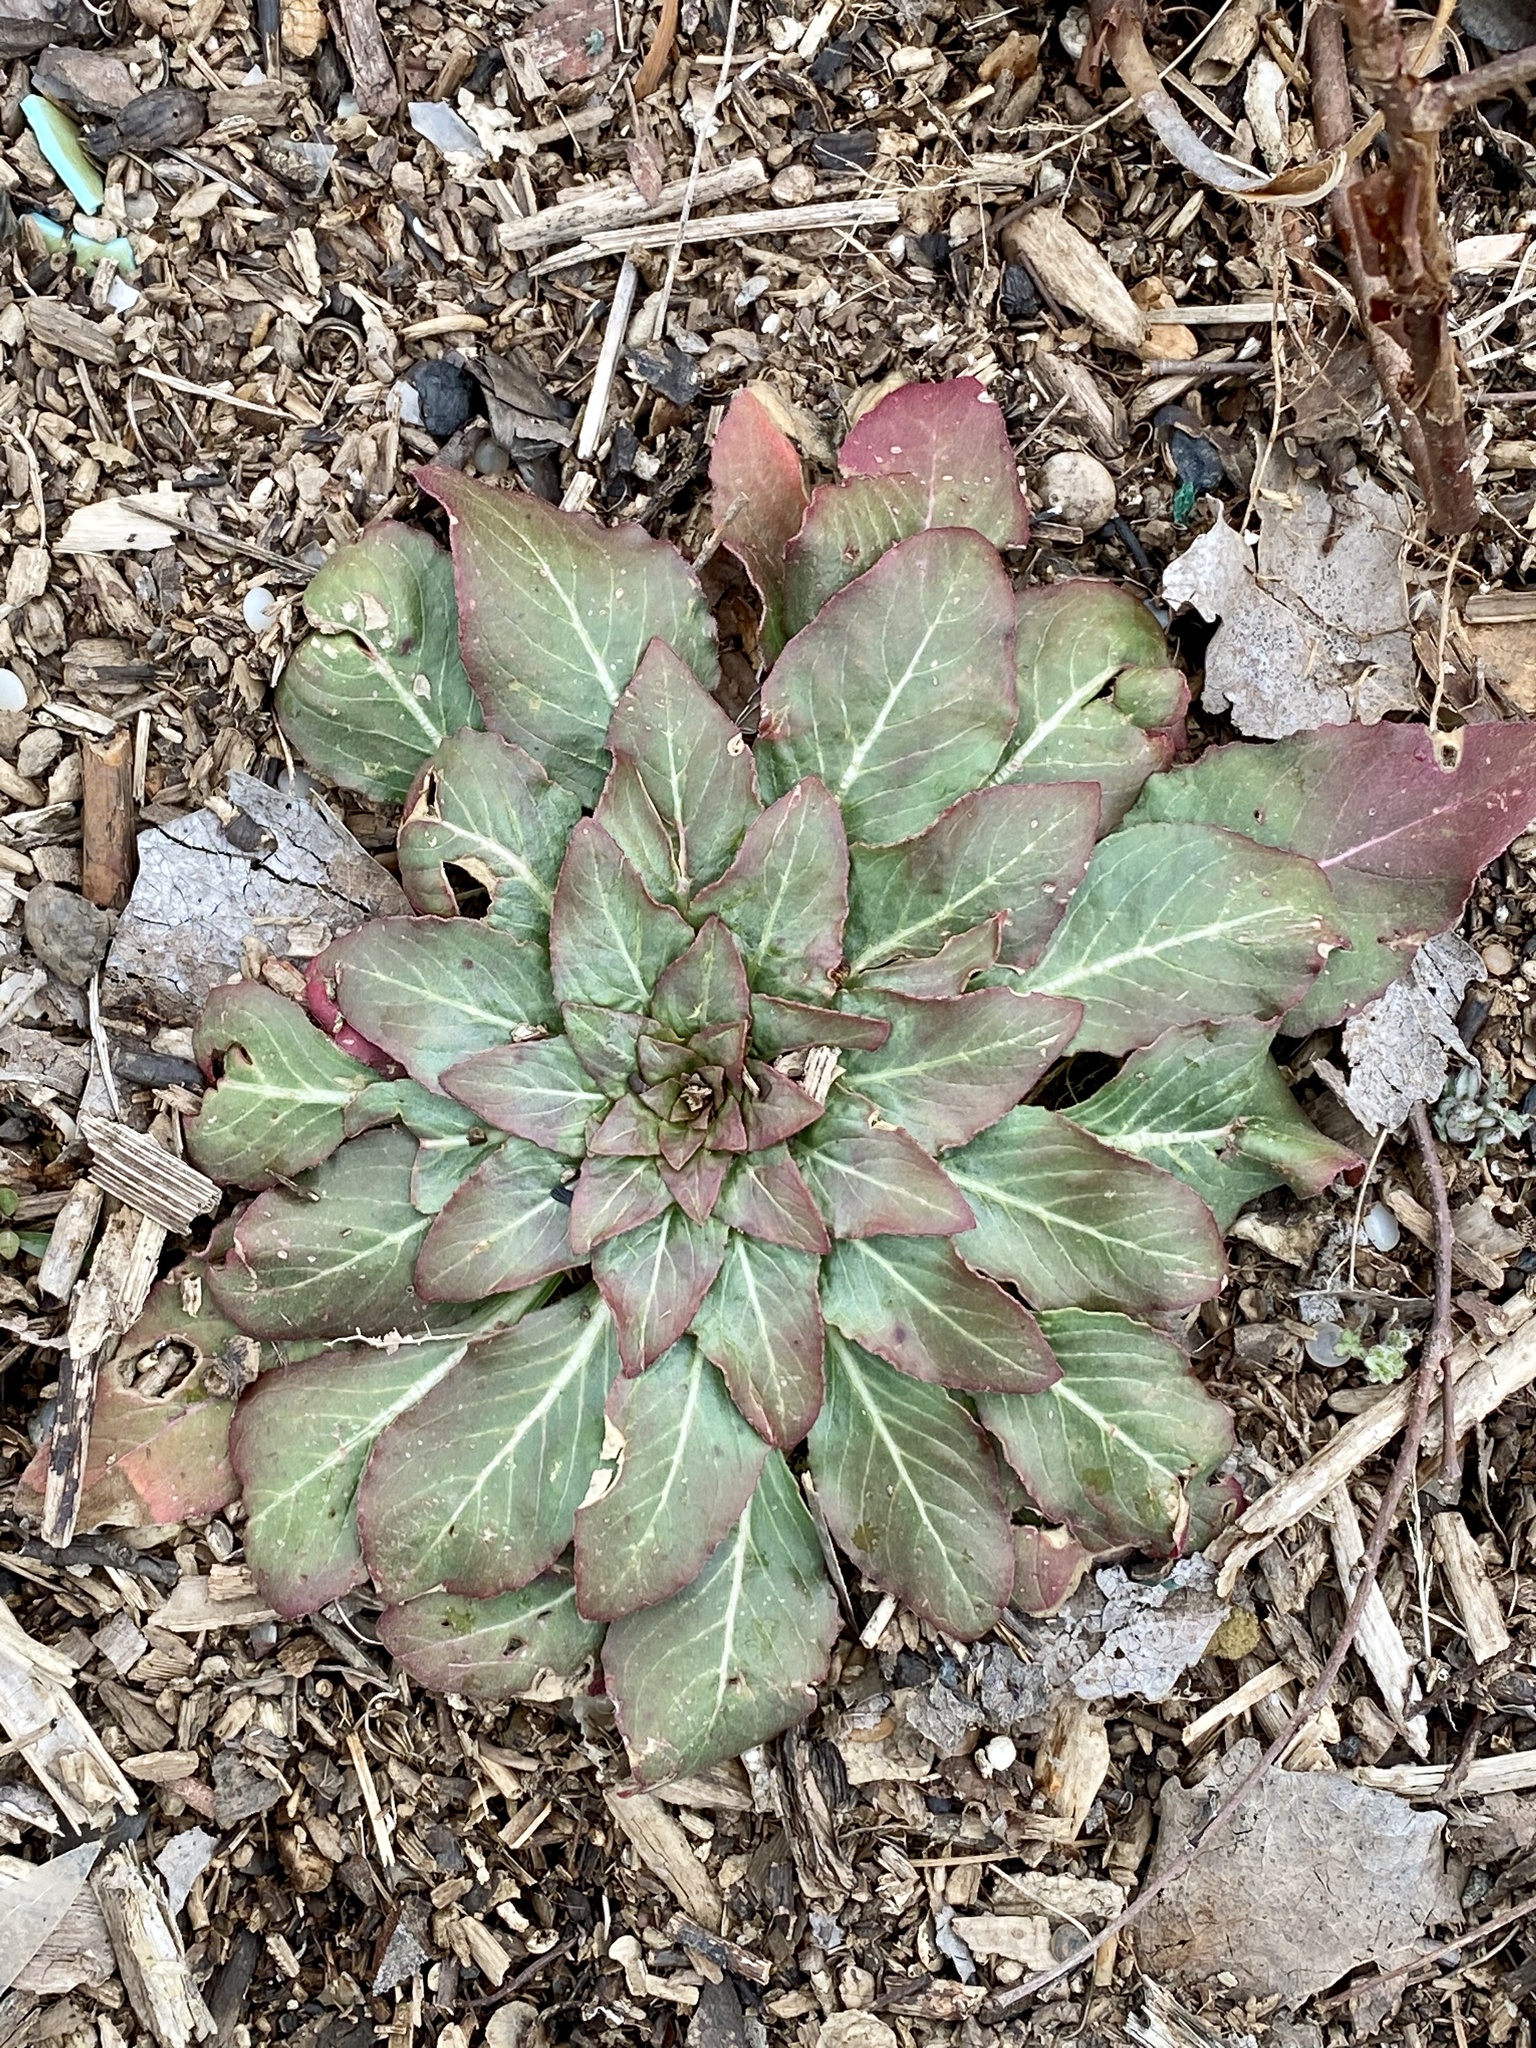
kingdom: Plantae
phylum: Tracheophyta
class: Magnoliopsida
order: Myrtales
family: Onagraceae
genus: Oenothera
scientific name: Oenothera biennis
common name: Common evening-primrose
